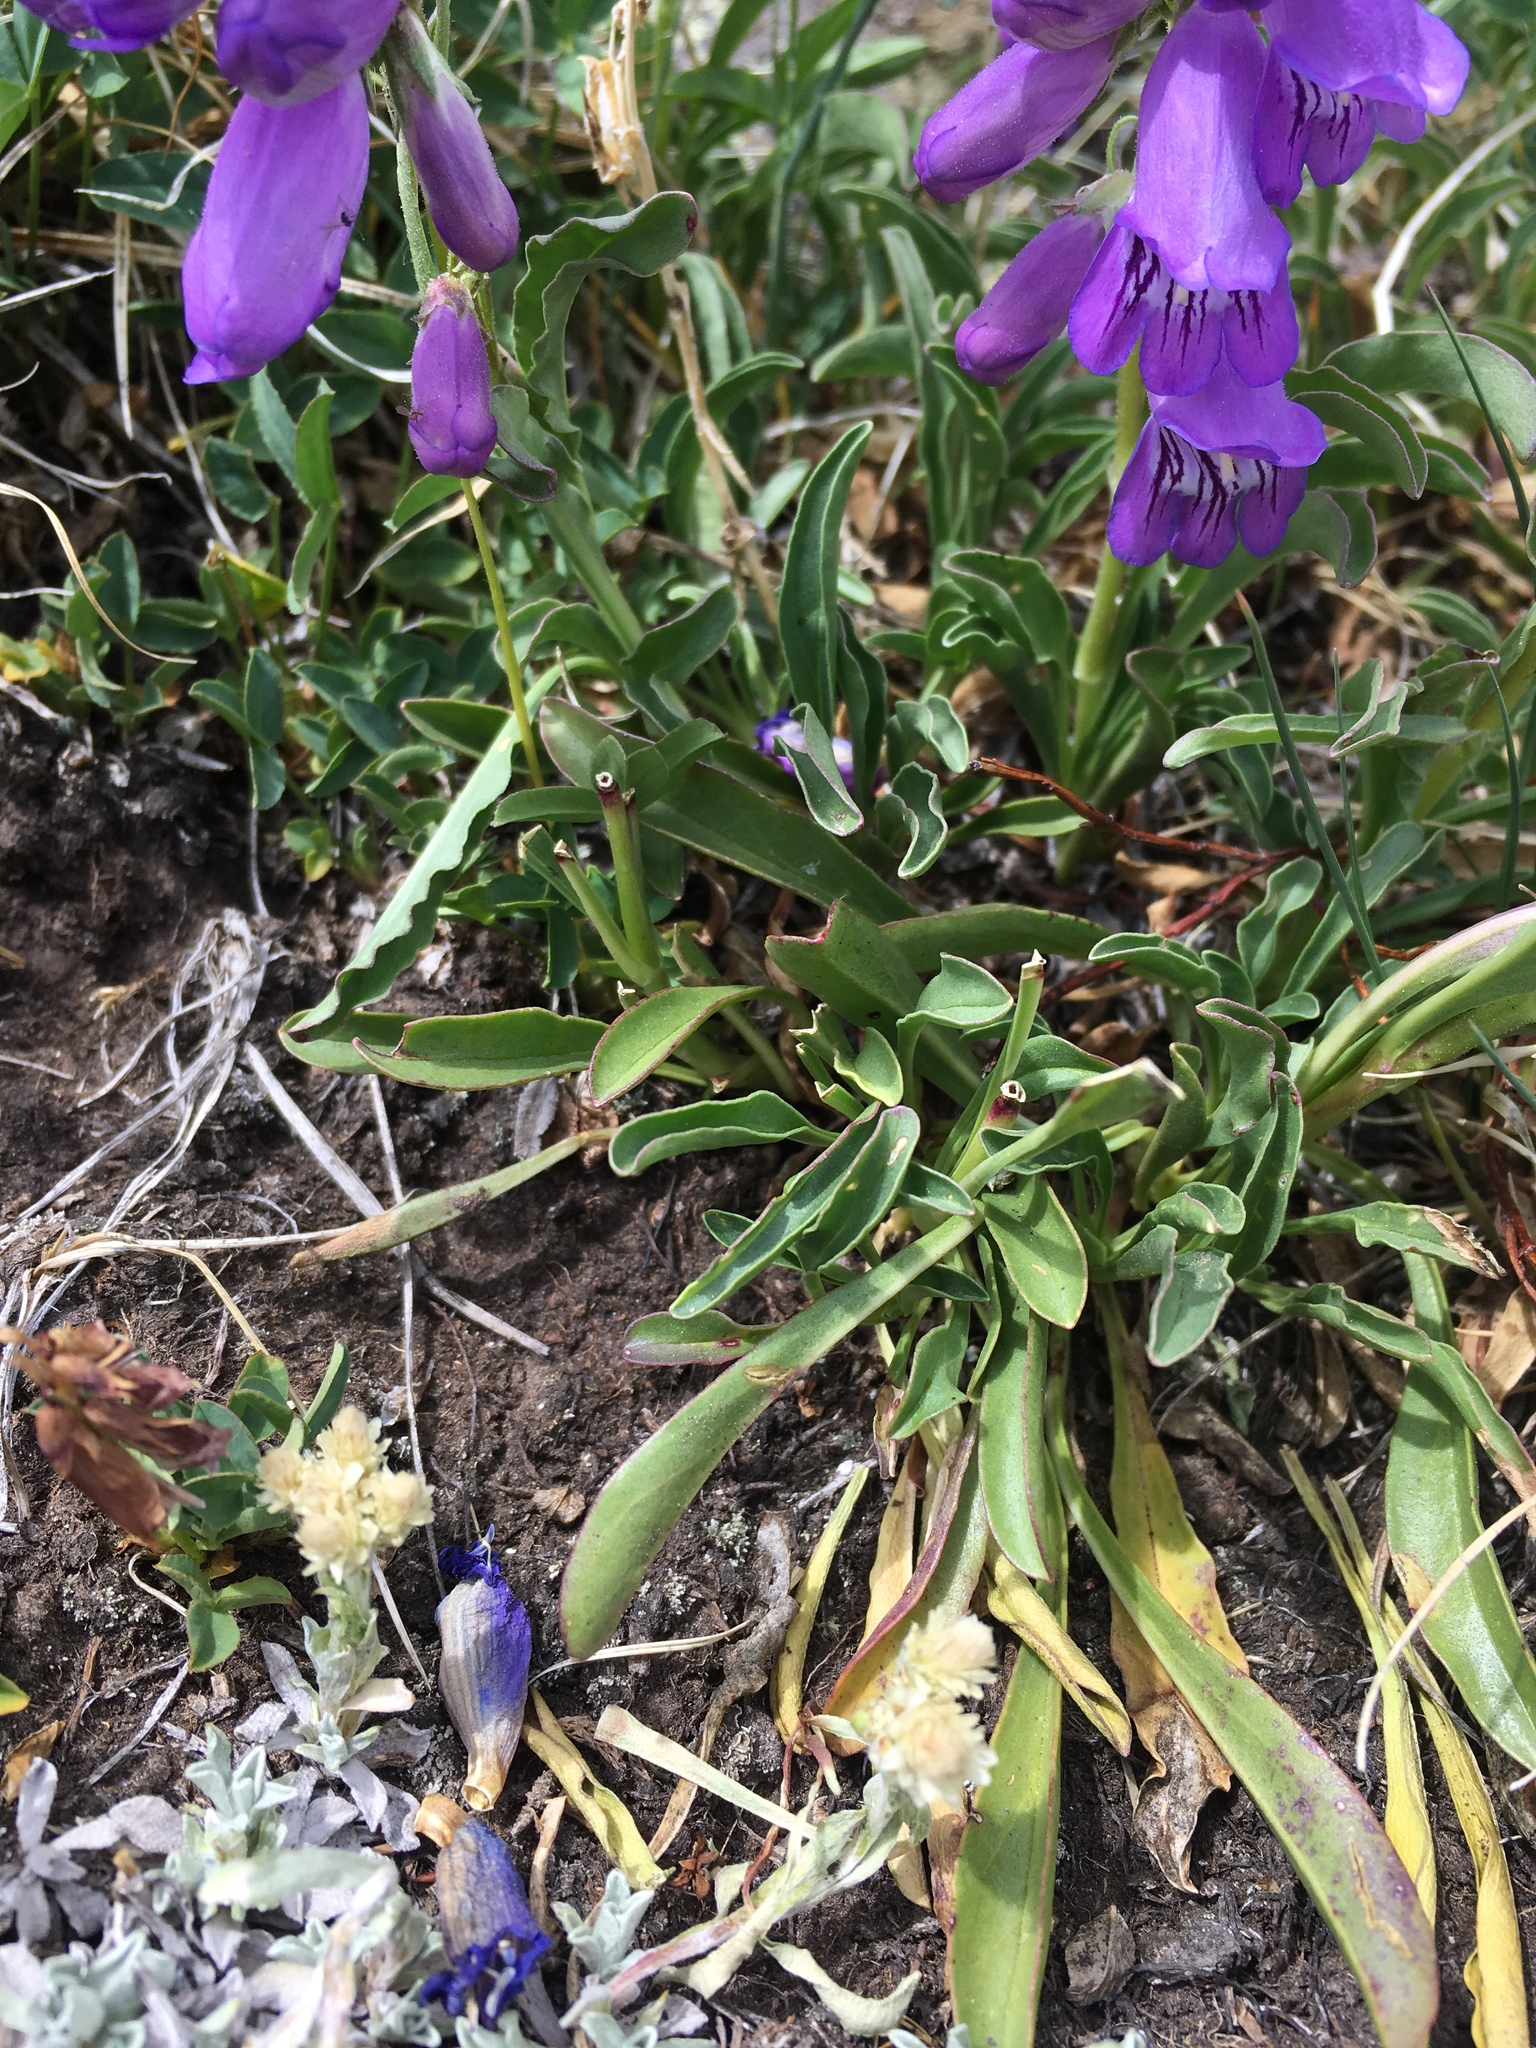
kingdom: Plantae
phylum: Tracheophyta
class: Magnoliopsida
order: Lamiales
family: Plantaginaceae
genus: Penstemon
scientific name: Penstemon hallii
